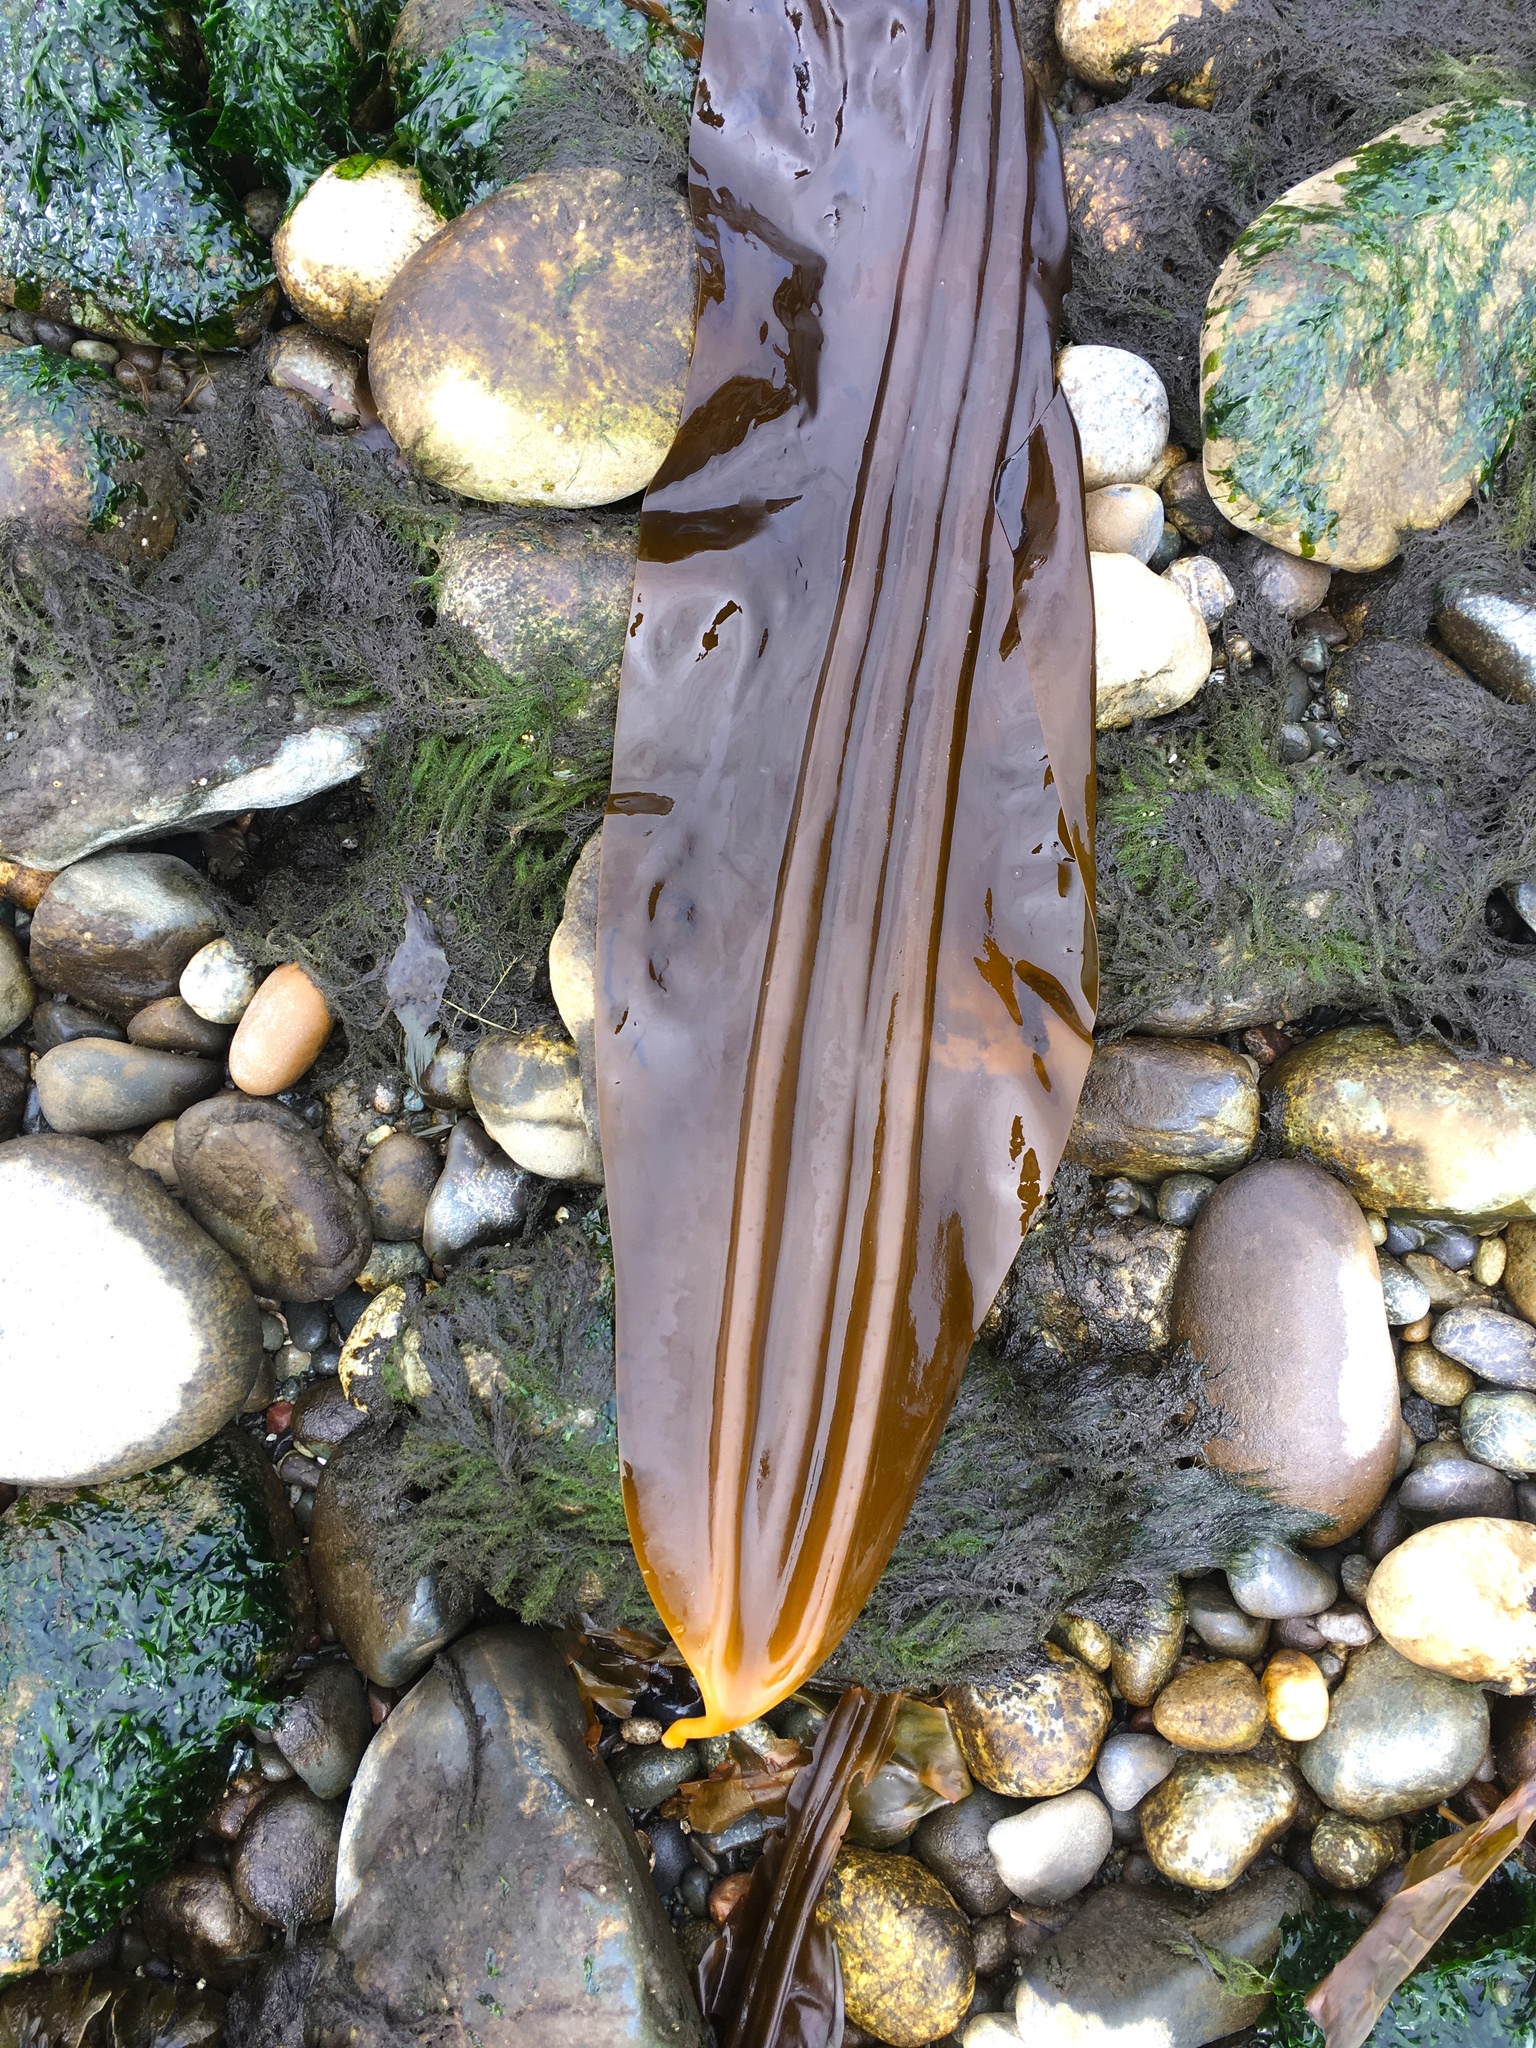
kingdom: Chromista
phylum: Ochrophyta
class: Phaeophyceae
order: Laminariales
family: Laminariaceae
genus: Cymathaere
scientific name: Cymathaere triplicata
